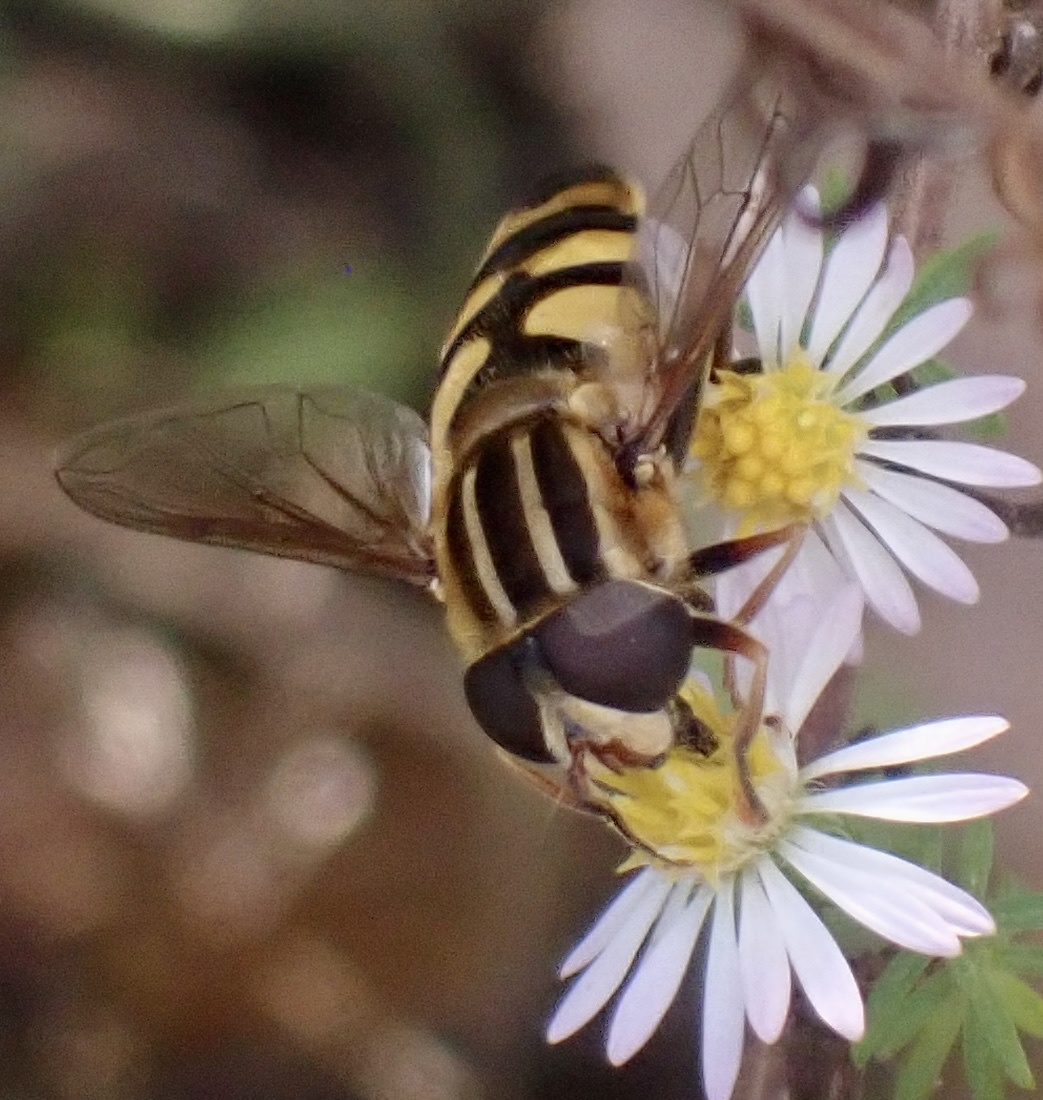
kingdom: Animalia
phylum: Arthropoda
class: Insecta
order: Diptera
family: Syrphidae
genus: Helophilus
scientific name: Helophilus fasciatus
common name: Narrow-headed marsh fly
